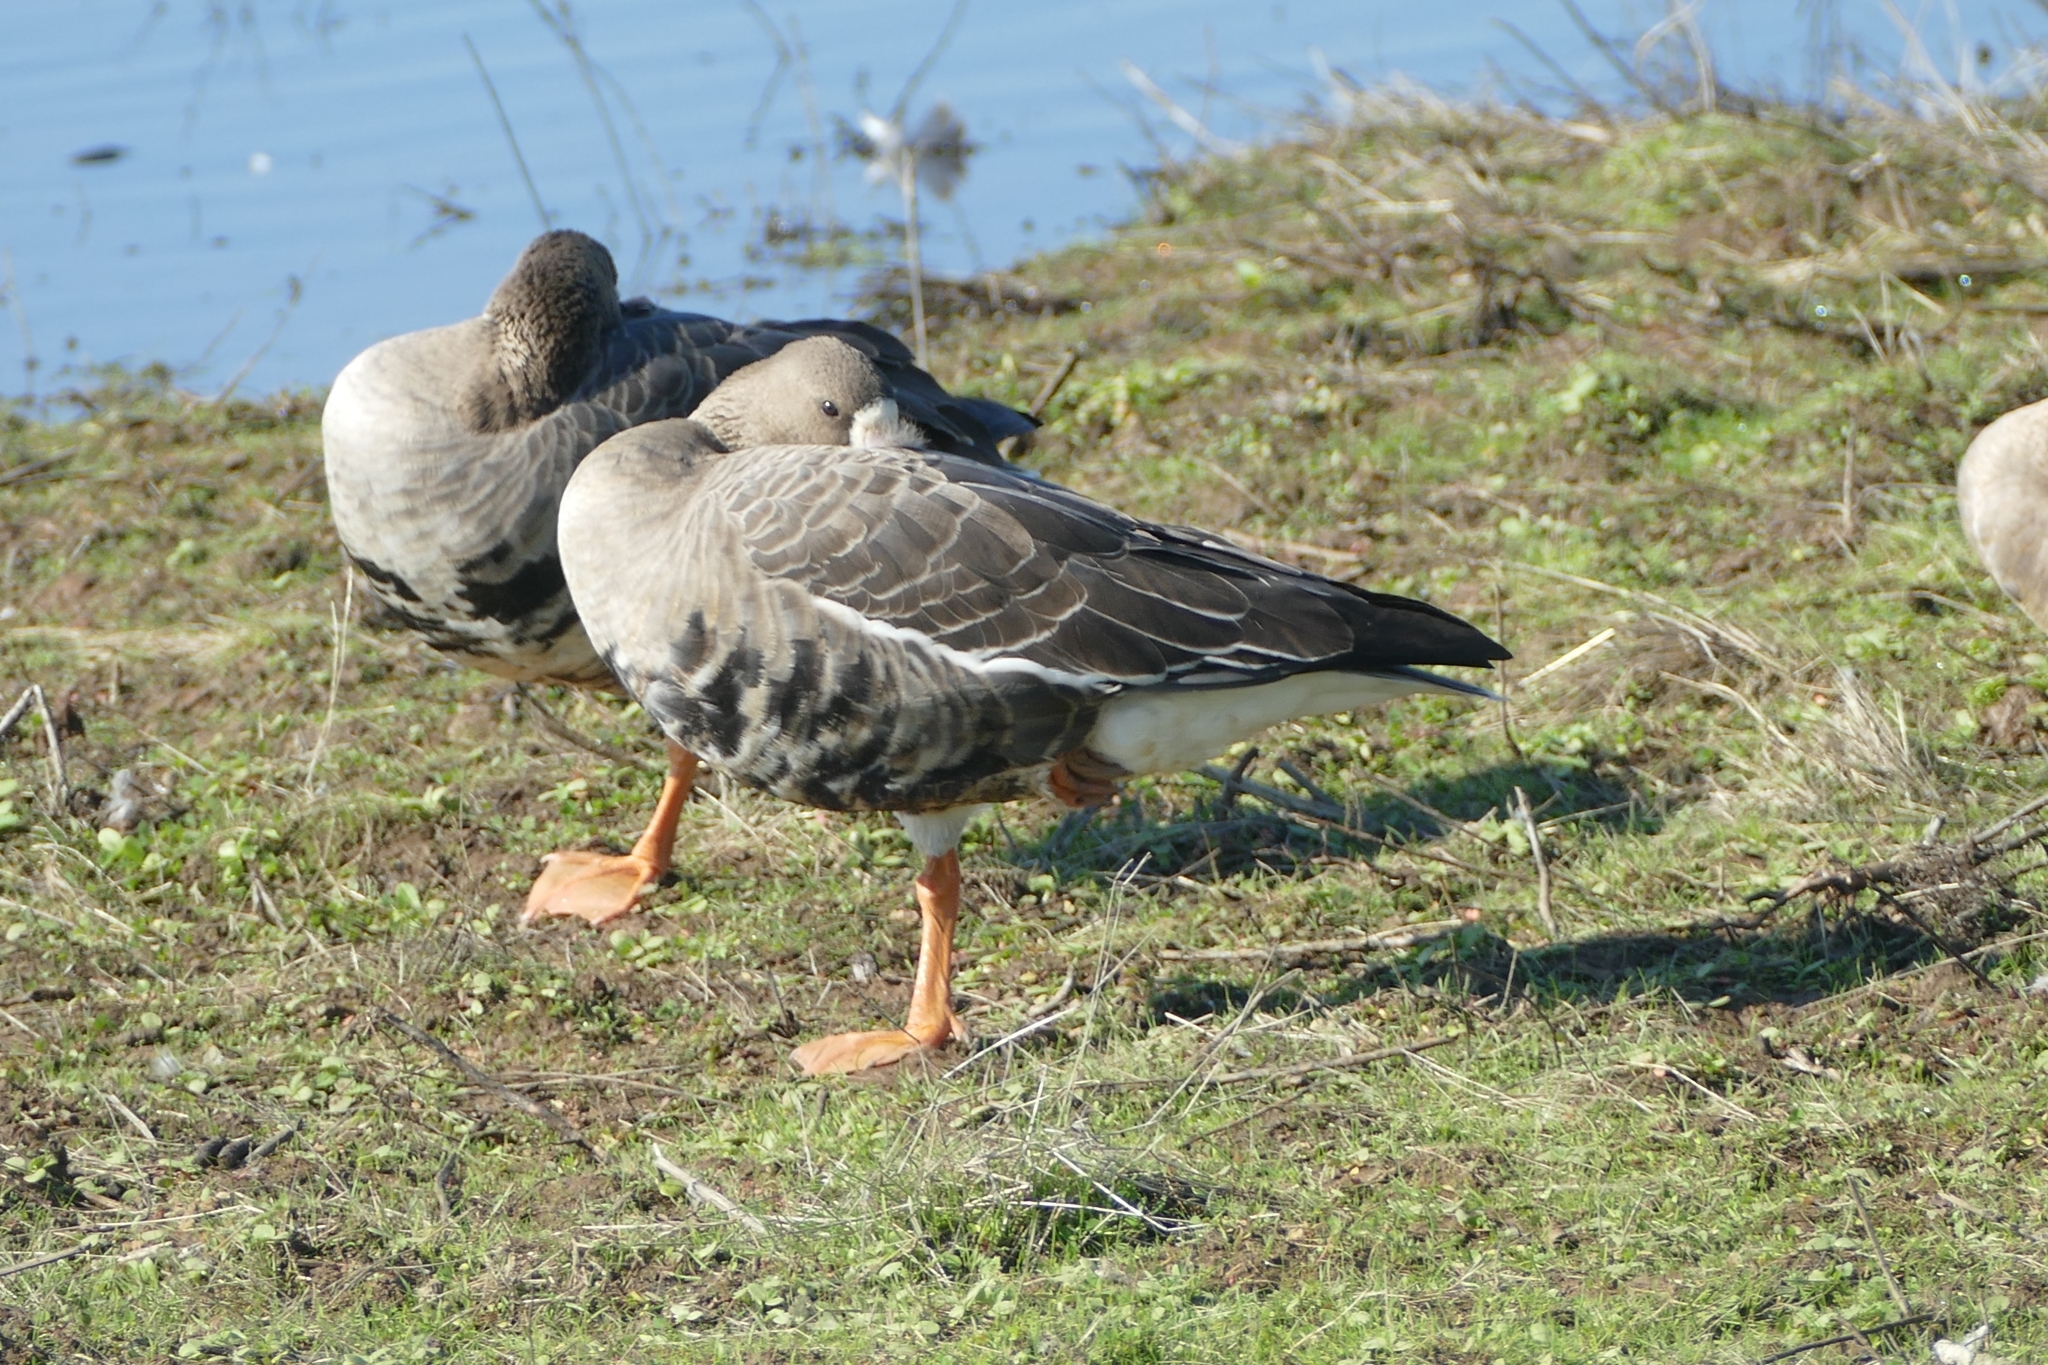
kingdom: Animalia
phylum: Chordata
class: Aves
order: Anseriformes
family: Anatidae
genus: Anser
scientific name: Anser albifrons
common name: Greater white-fronted goose
